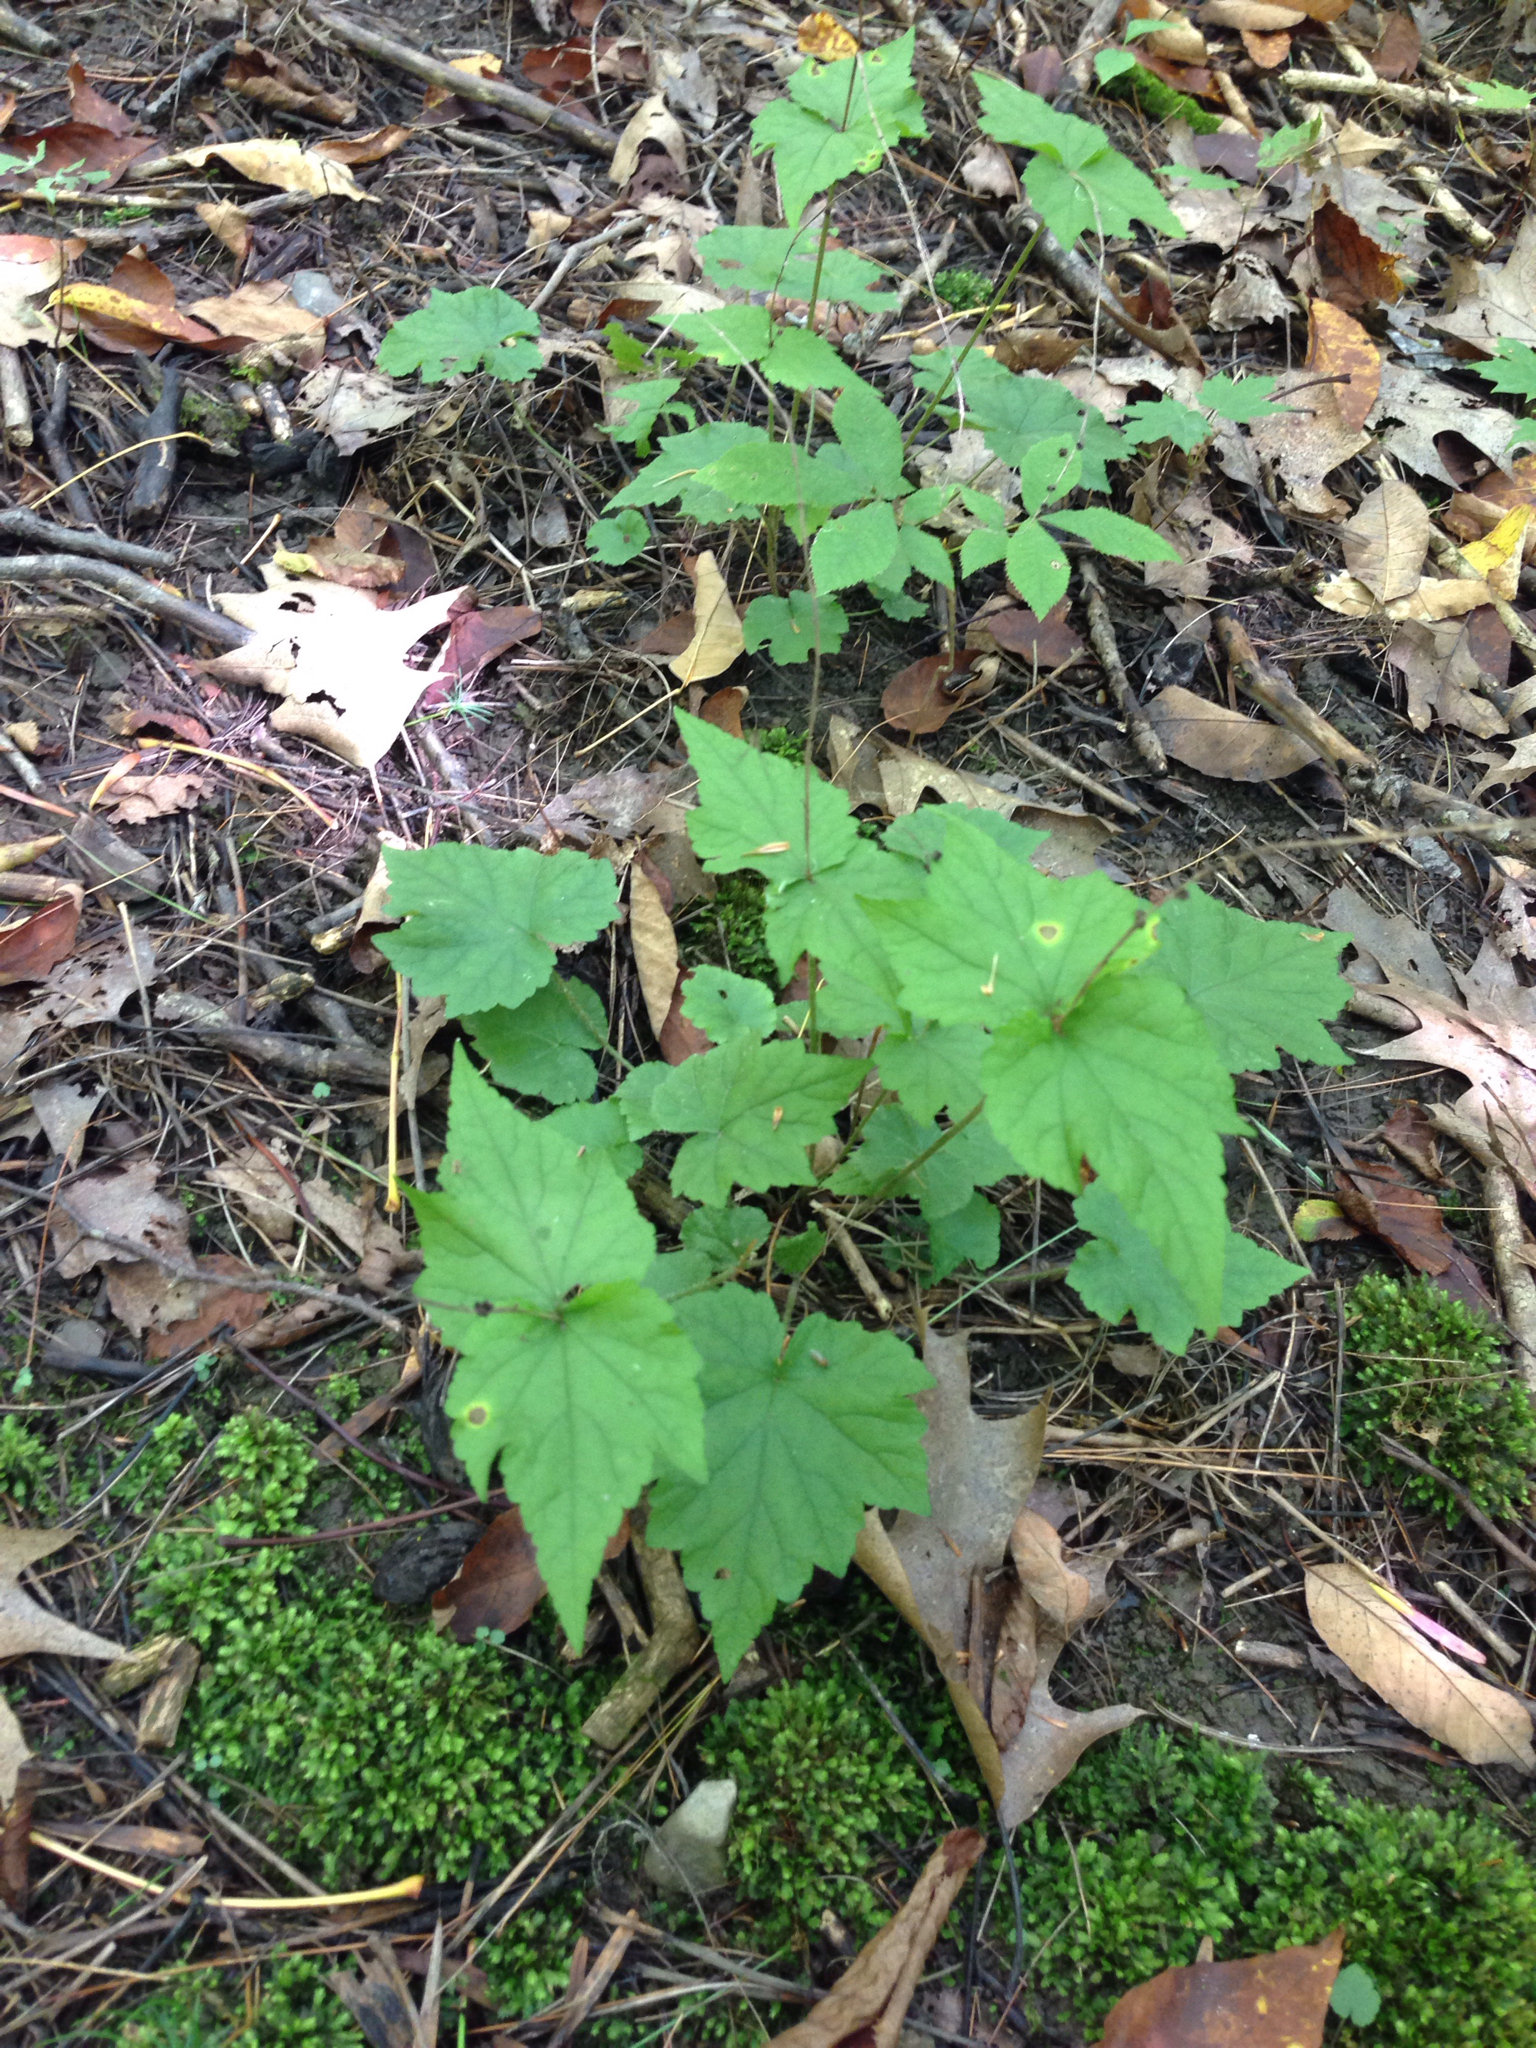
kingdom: Plantae
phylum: Tracheophyta
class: Magnoliopsida
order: Saxifragales
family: Saxifragaceae
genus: Mitella
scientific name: Mitella diphylla
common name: Coolwort
